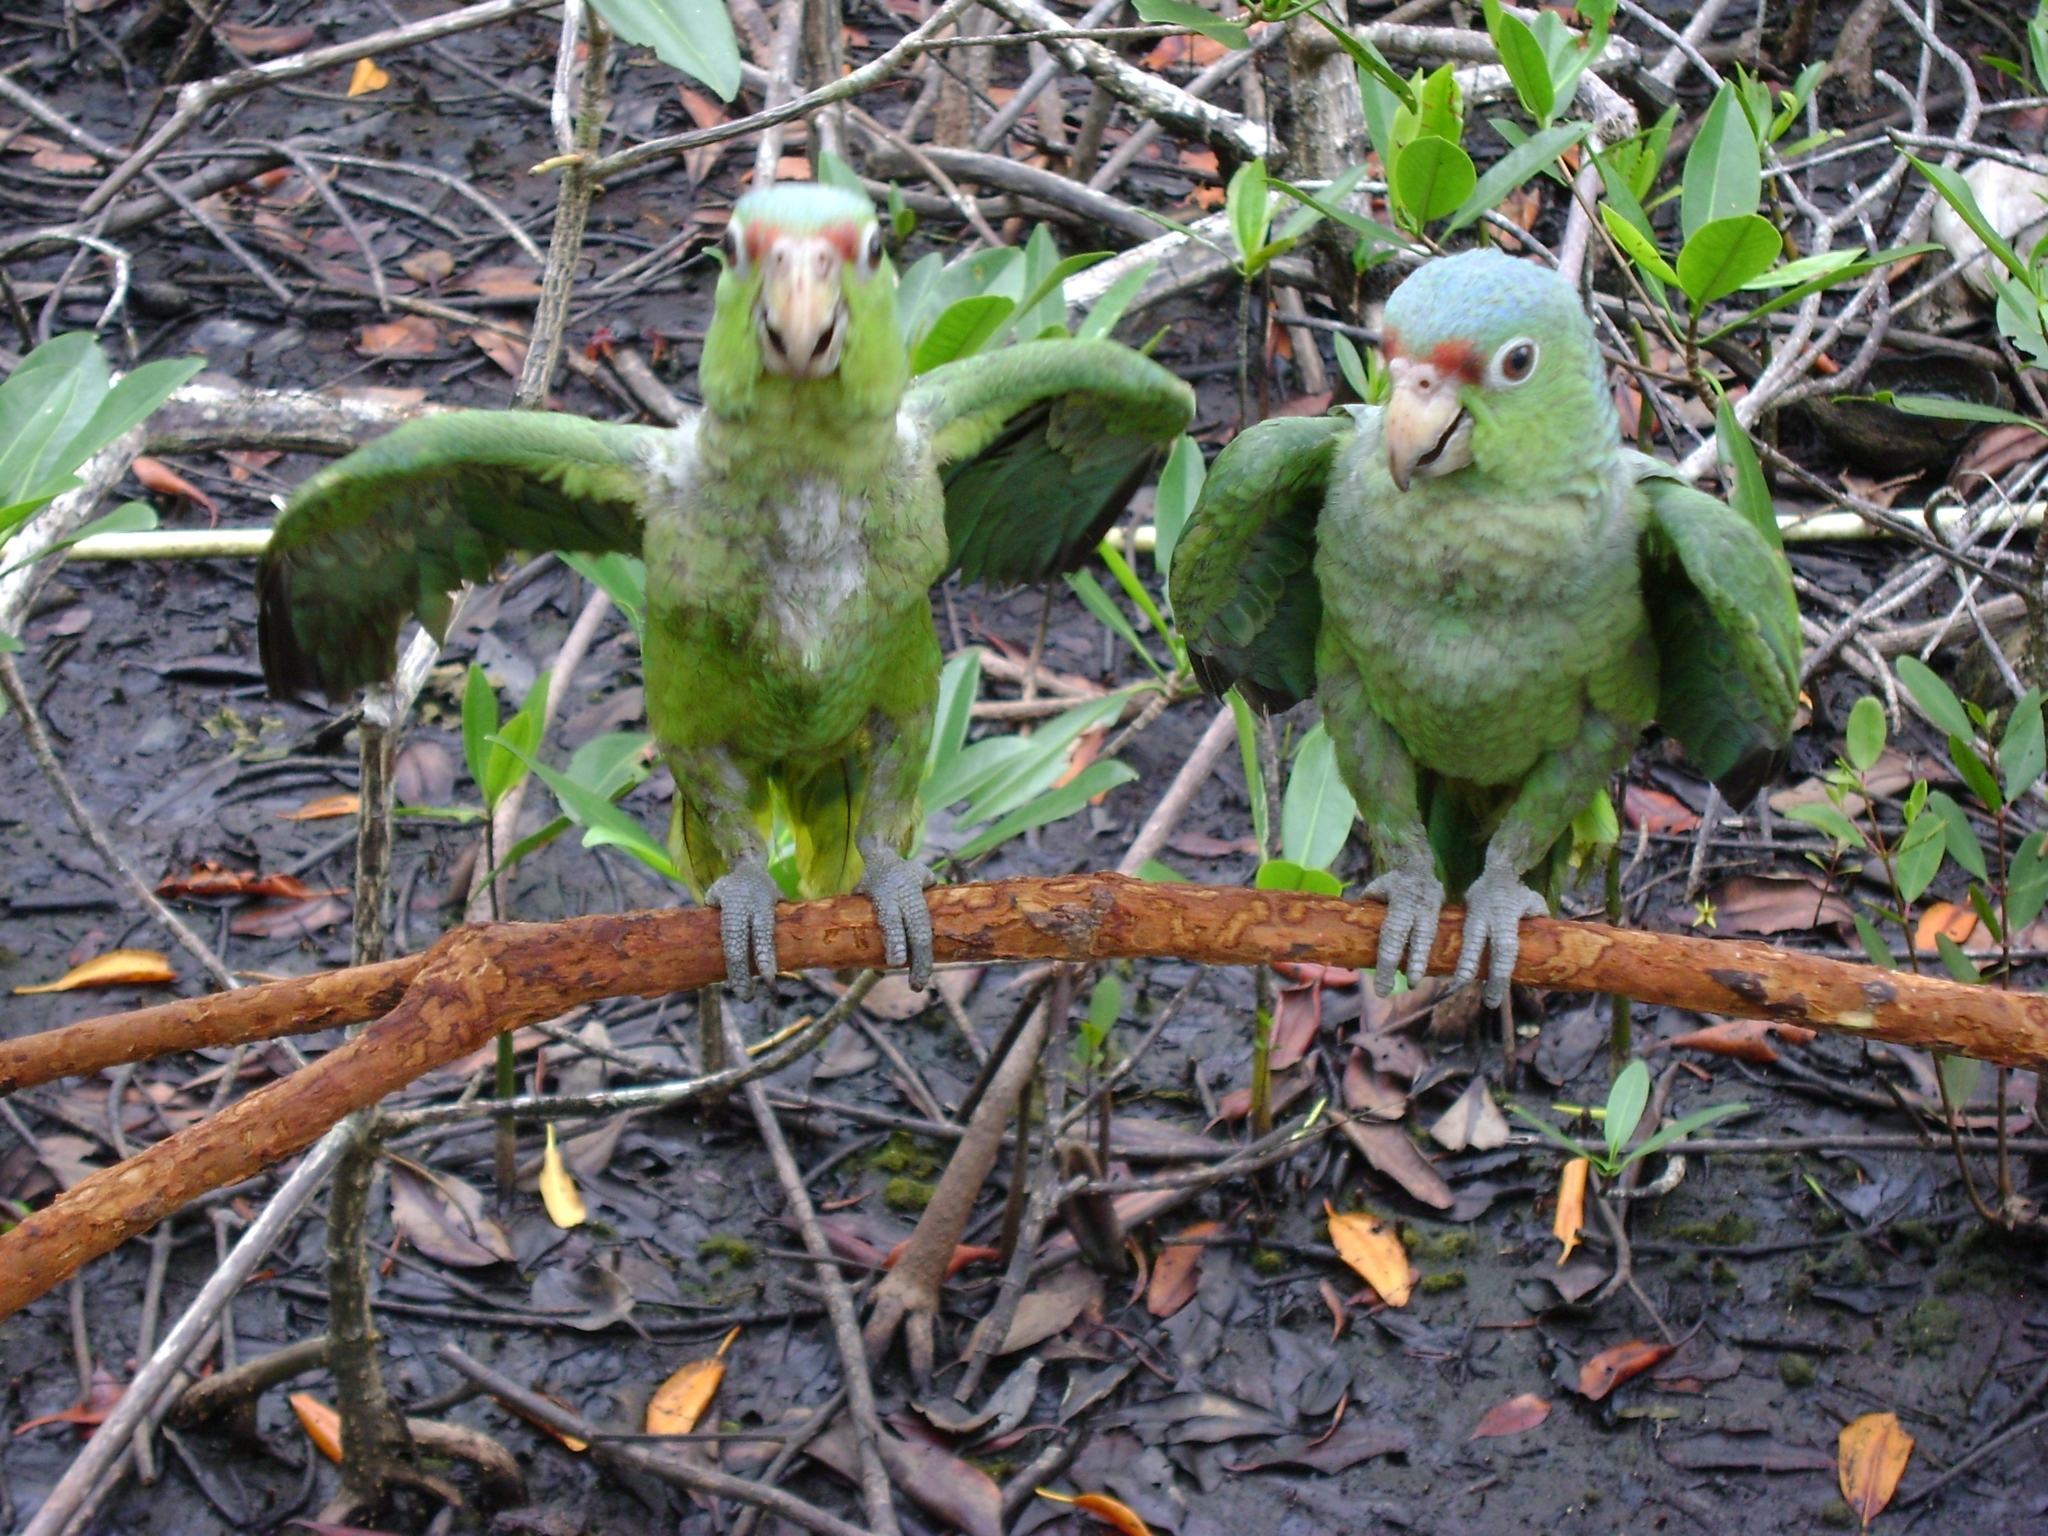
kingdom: Animalia
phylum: Chordata
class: Aves
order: Psittaciformes
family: Psittacidae
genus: Amazona
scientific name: Amazona autumnalis
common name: Red-lored amazon
